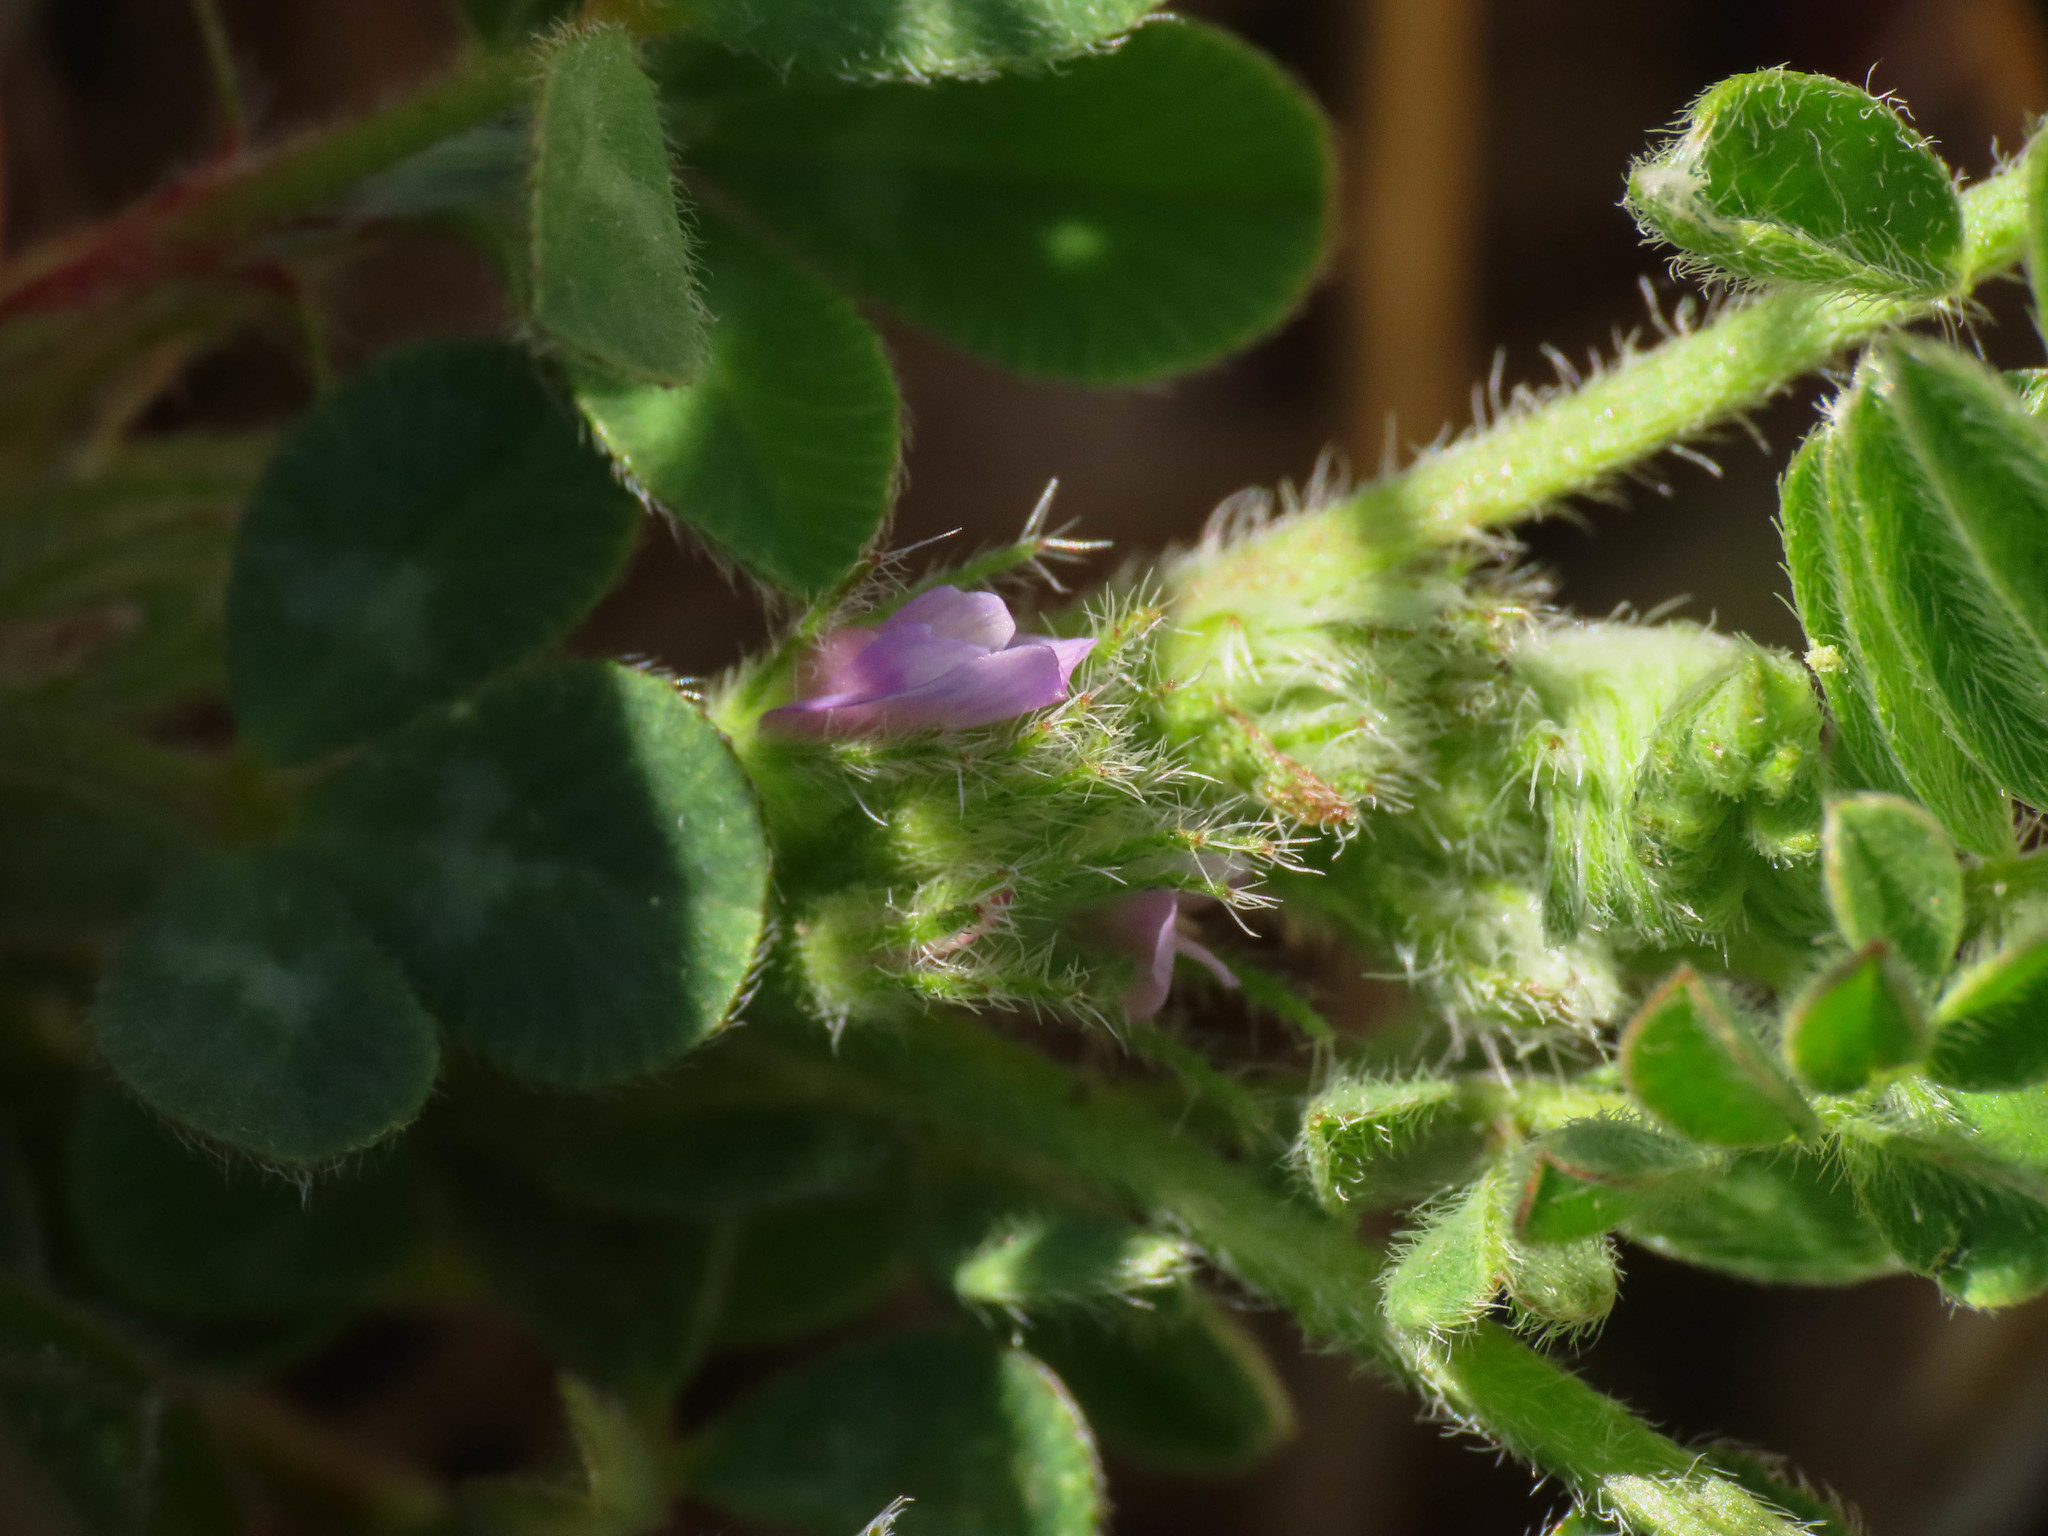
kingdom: Plantae
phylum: Tracheophyta
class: Magnoliopsida
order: Fabales
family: Fabaceae
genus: Astragalus
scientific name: Astragalus sesameus
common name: Purple milk-vetch
